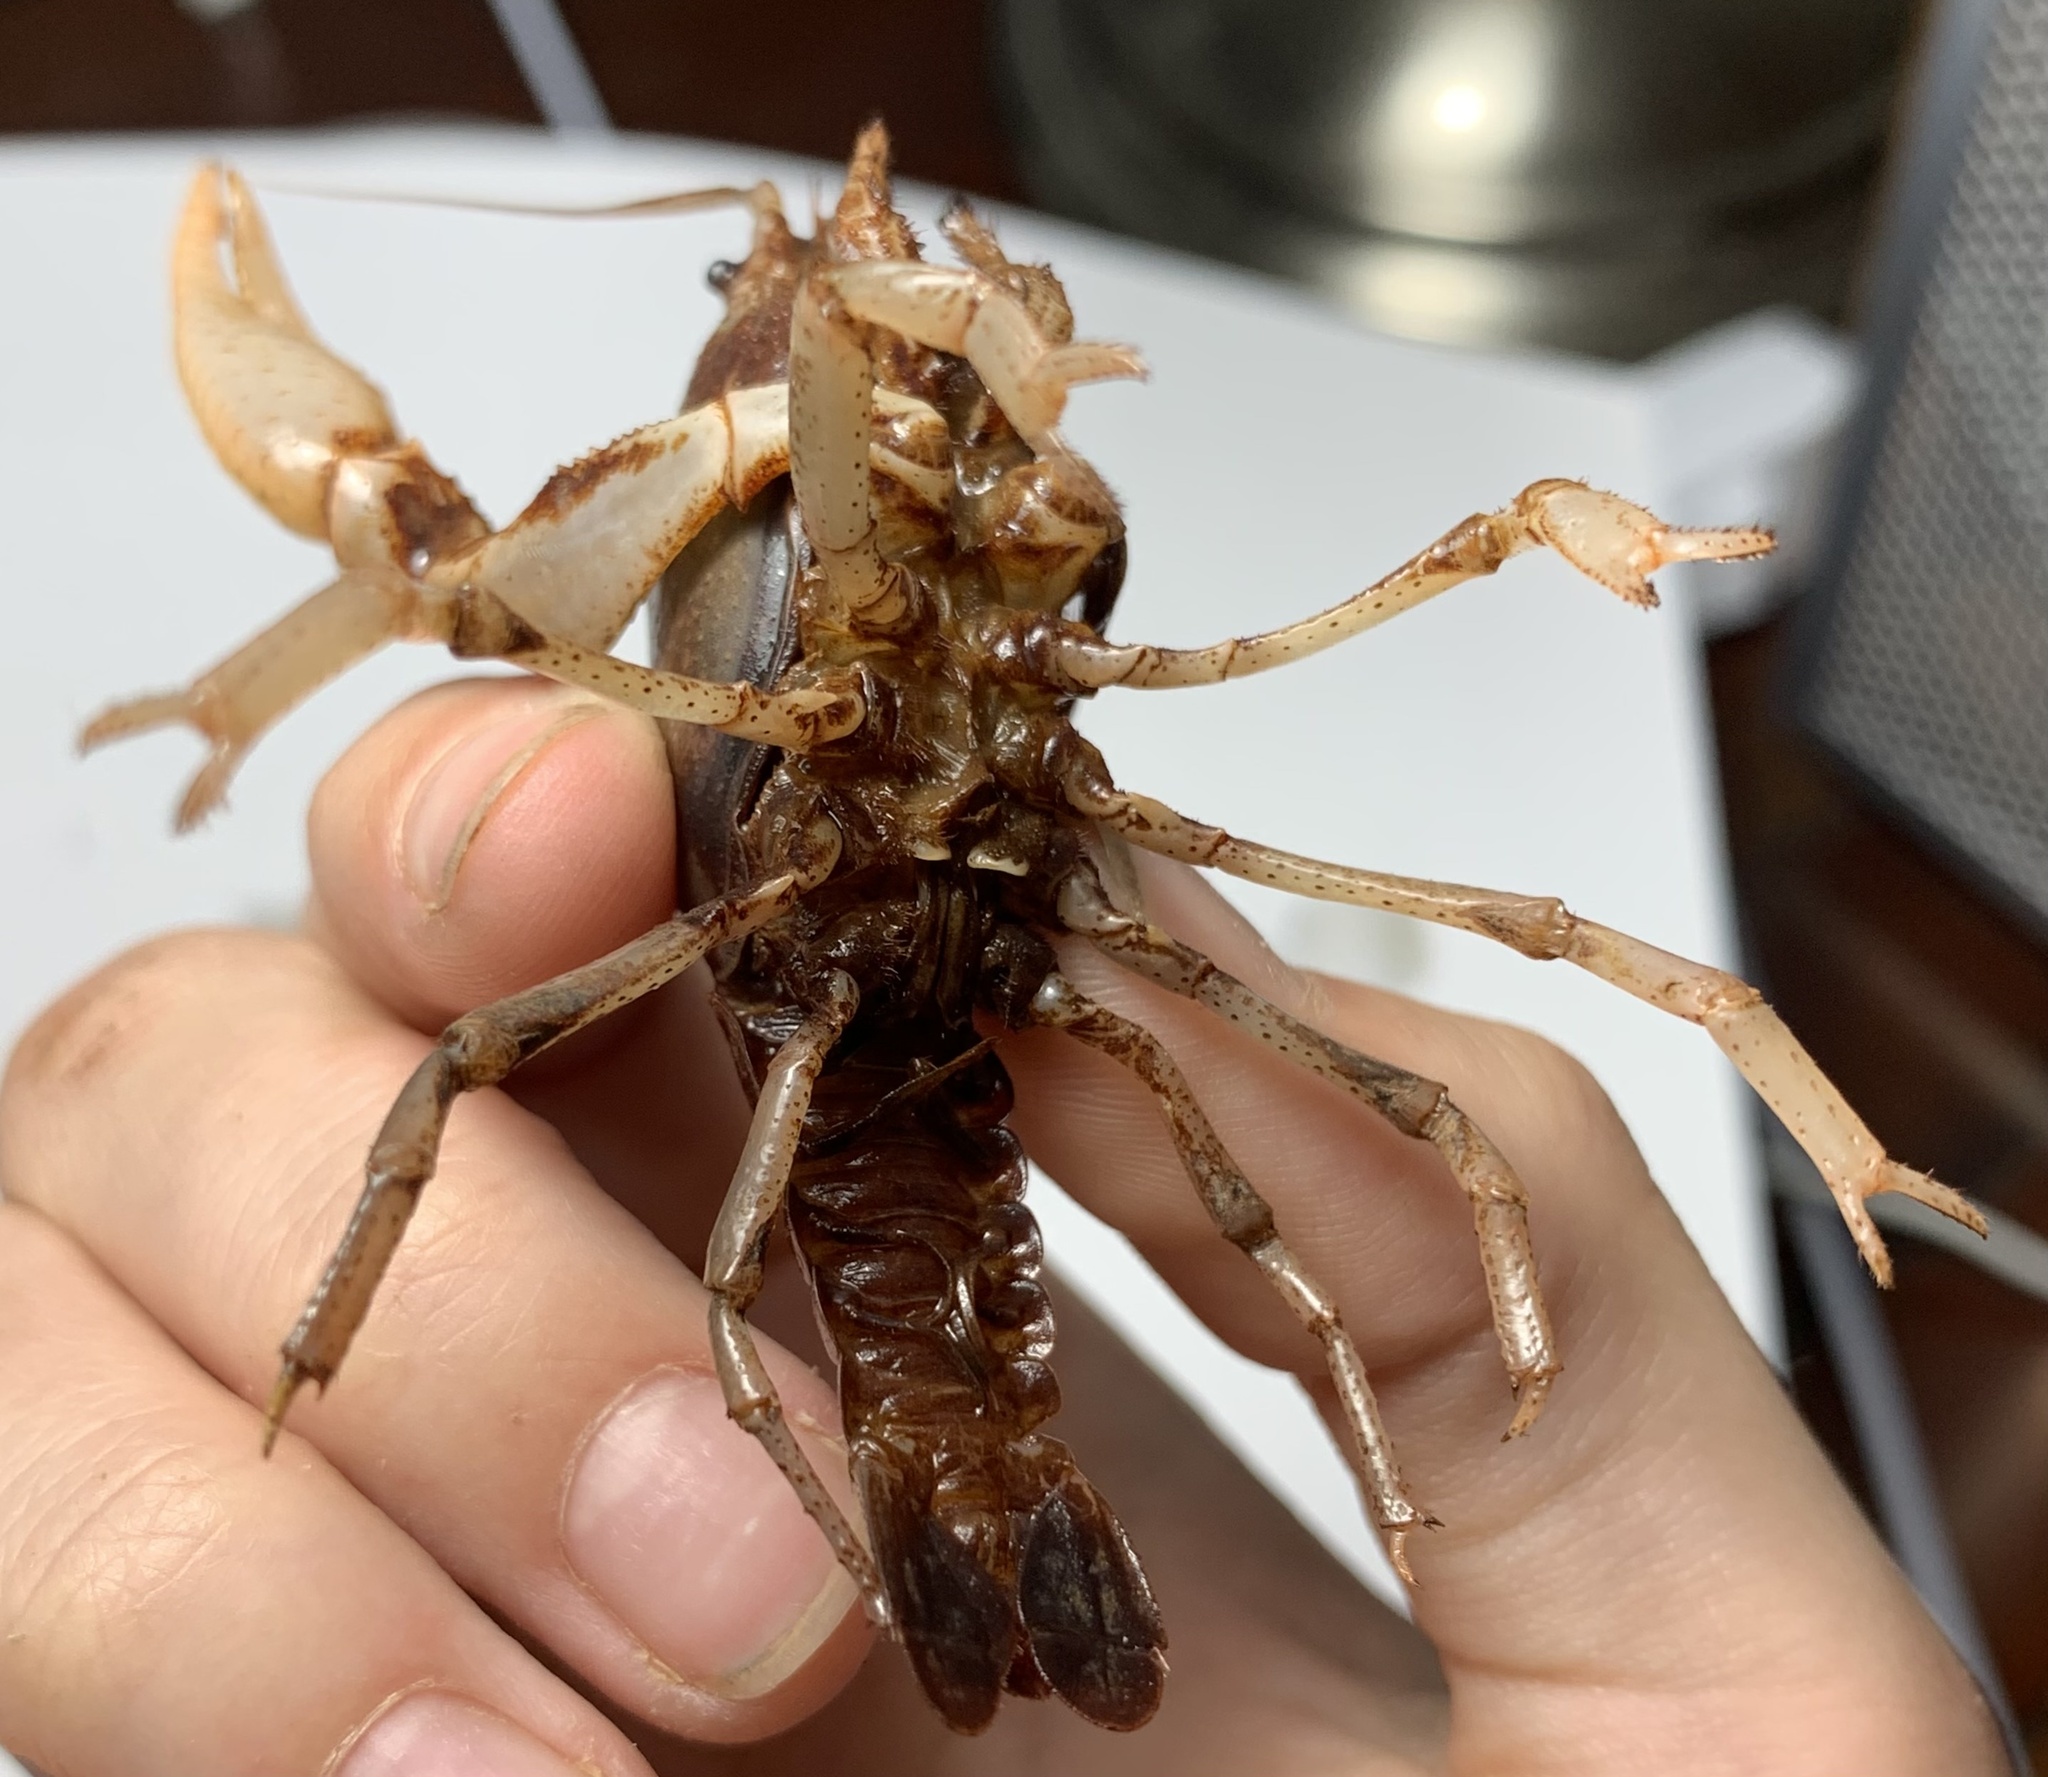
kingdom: Animalia
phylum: Arthropoda
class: Malacostraca
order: Decapoda
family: Cambaridae
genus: Fallicambarus
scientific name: Fallicambarus houstonensis
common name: Houston burrowing crayfish
